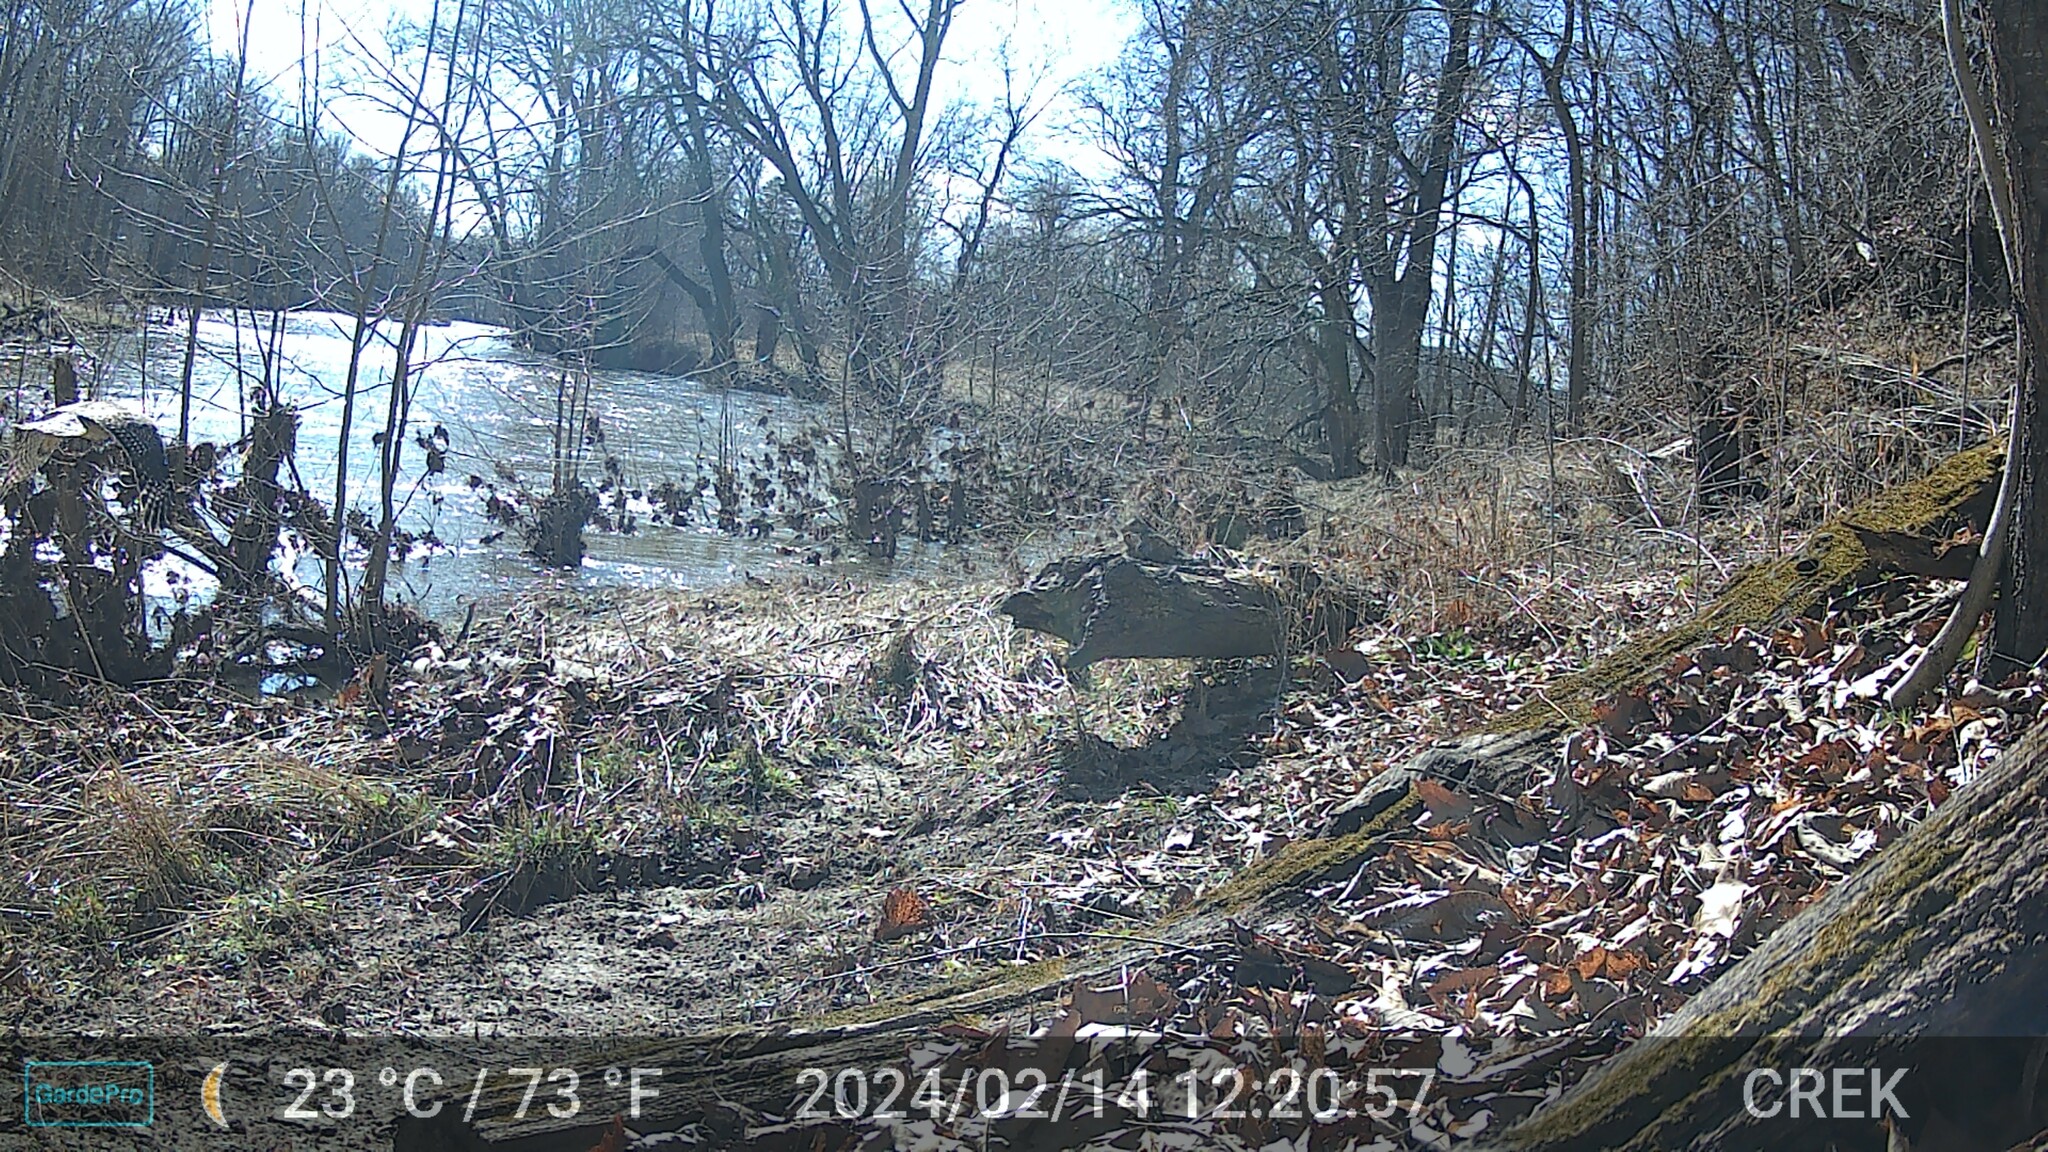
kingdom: Animalia
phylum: Chordata
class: Aves
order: Accipitriformes
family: Accipitridae
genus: Buteo
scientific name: Buteo lineatus
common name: Red-shouldered hawk
